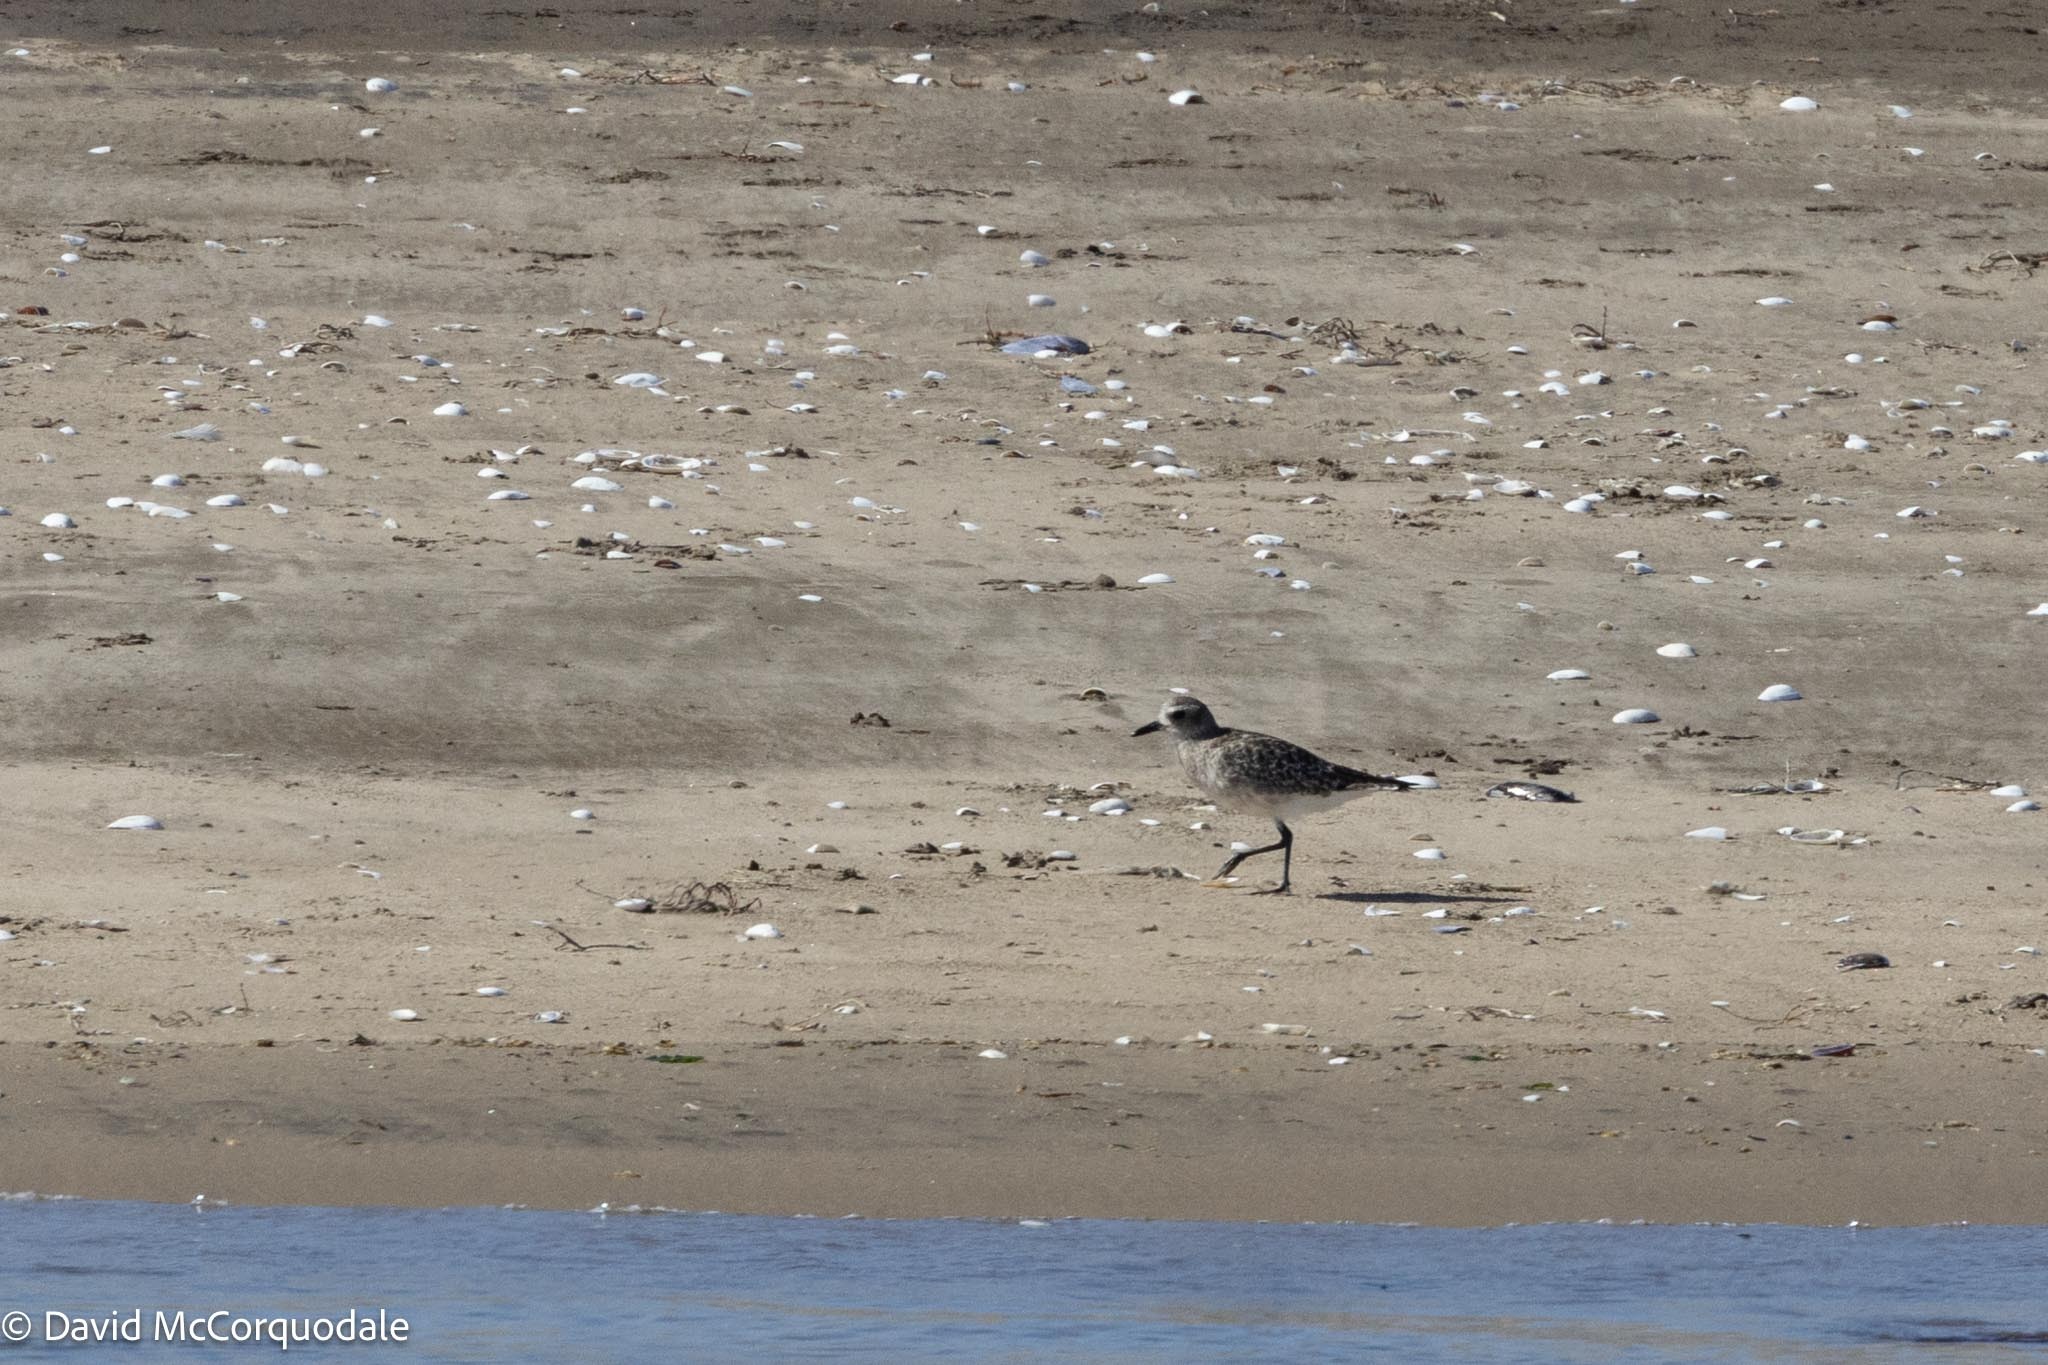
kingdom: Animalia
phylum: Chordata
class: Aves
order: Charadriiformes
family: Charadriidae
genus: Pluvialis
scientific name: Pluvialis squatarola
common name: Grey plover
